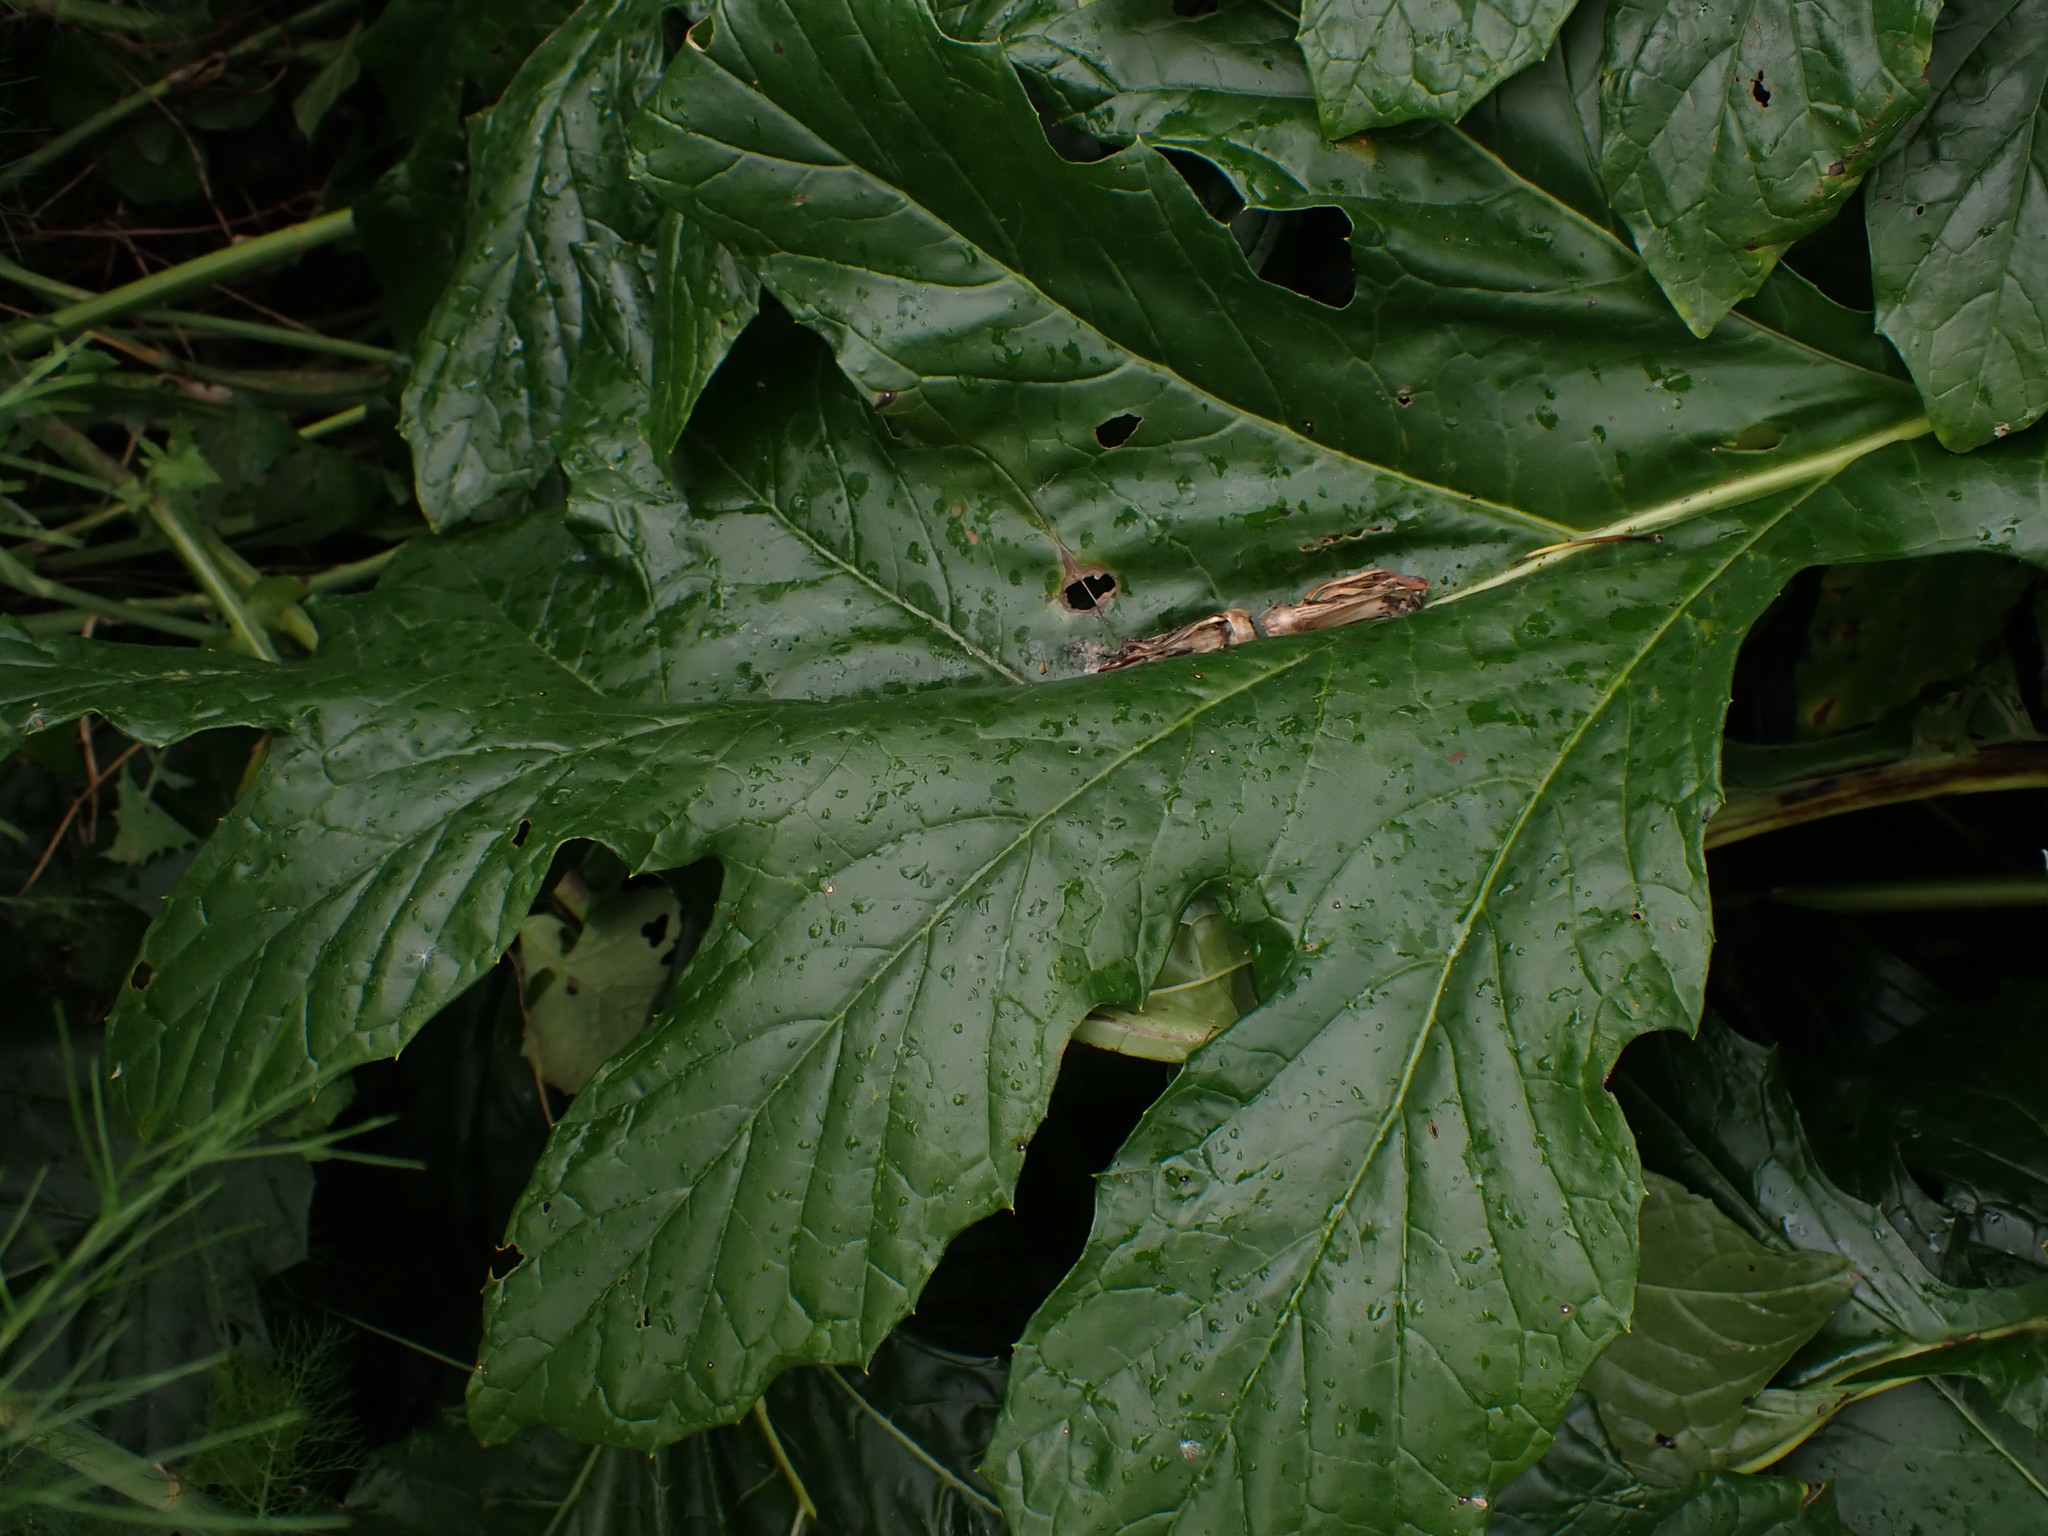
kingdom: Plantae
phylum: Tracheophyta
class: Magnoliopsida
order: Lamiales
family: Acanthaceae
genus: Acanthus
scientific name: Acanthus mollis
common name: Bear's-breech
